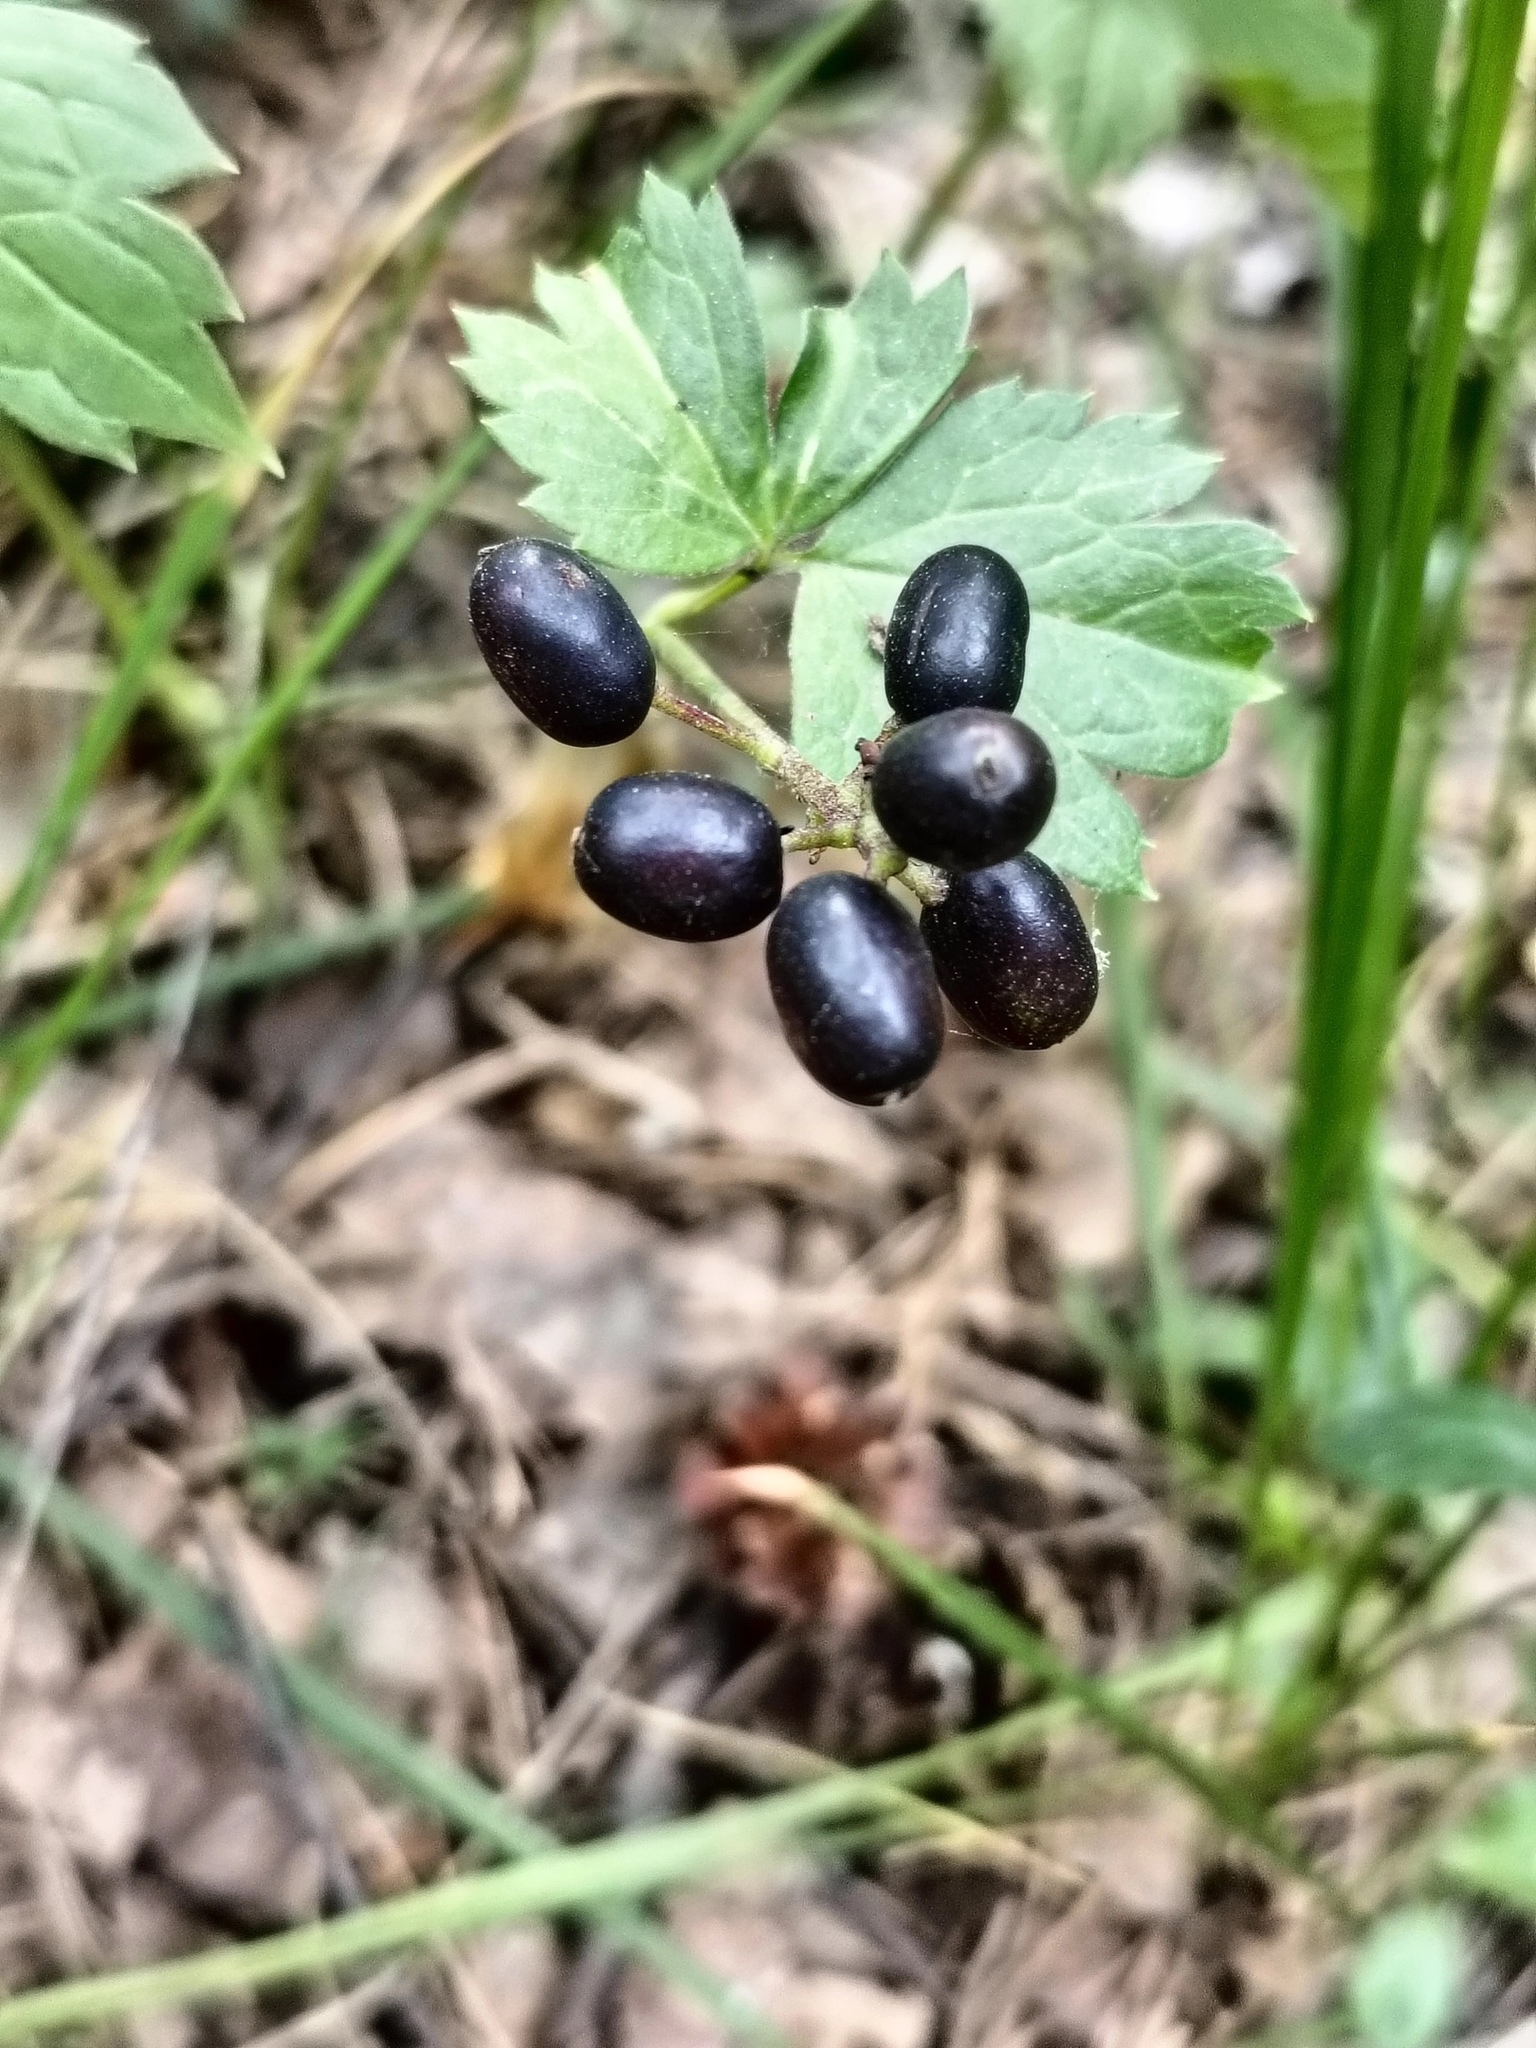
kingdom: Plantae
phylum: Tracheophyta
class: Magnoliopsida
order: Ranunculales
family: Ranunculaceae
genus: Actaea
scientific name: Actaea spicata
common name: Baneberry
